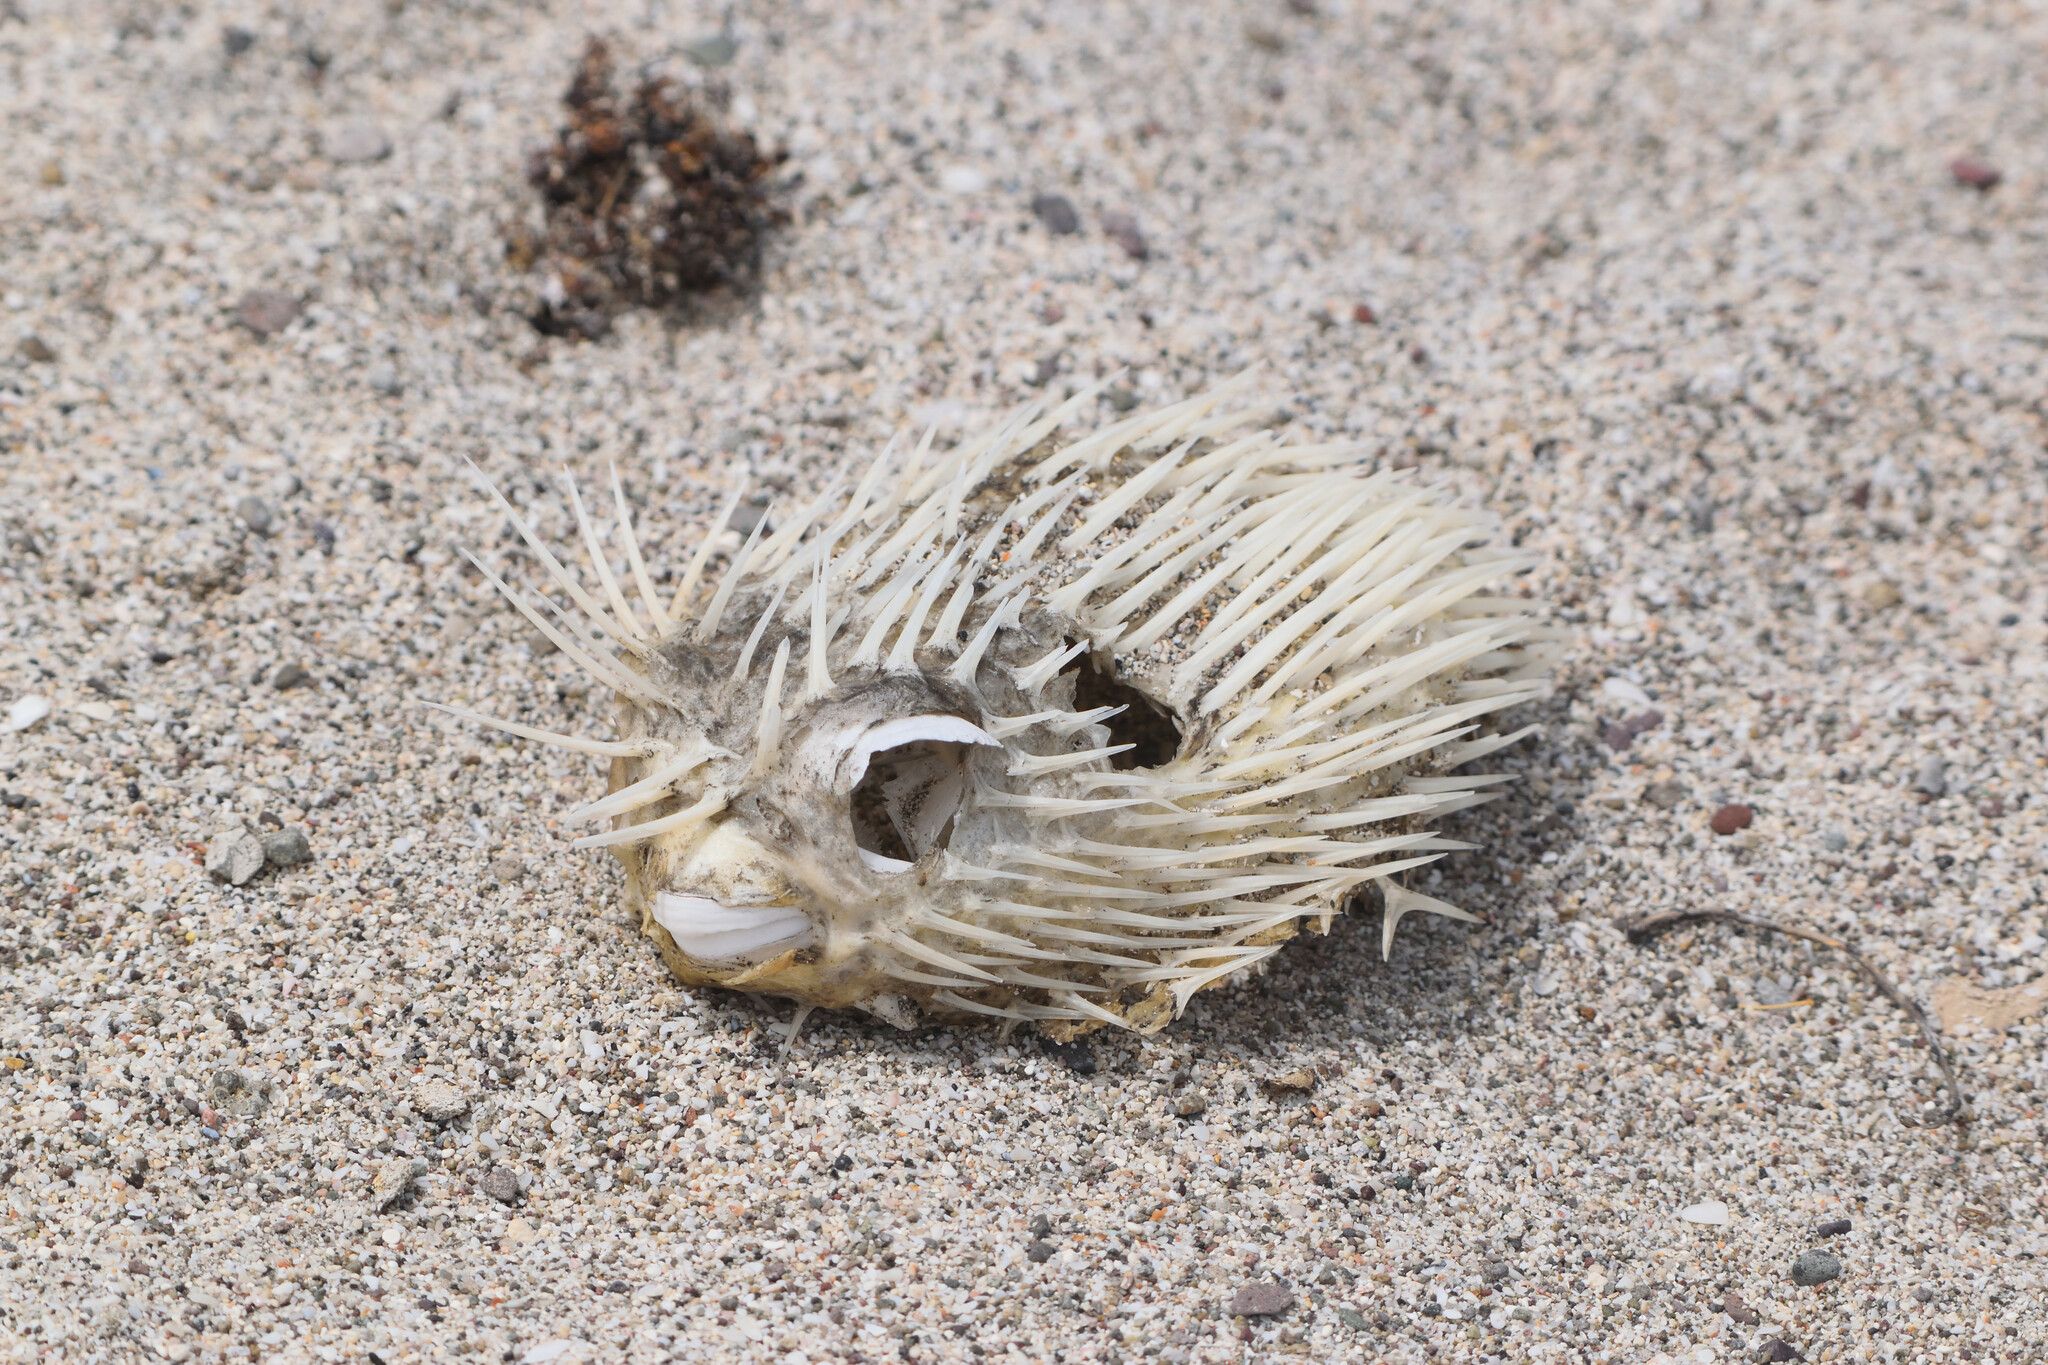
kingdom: Animalia
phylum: Chordata
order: Tetraodontiformes
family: Diodontidae
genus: Diodon
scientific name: Diodon holocanthus
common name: Balloonfish
